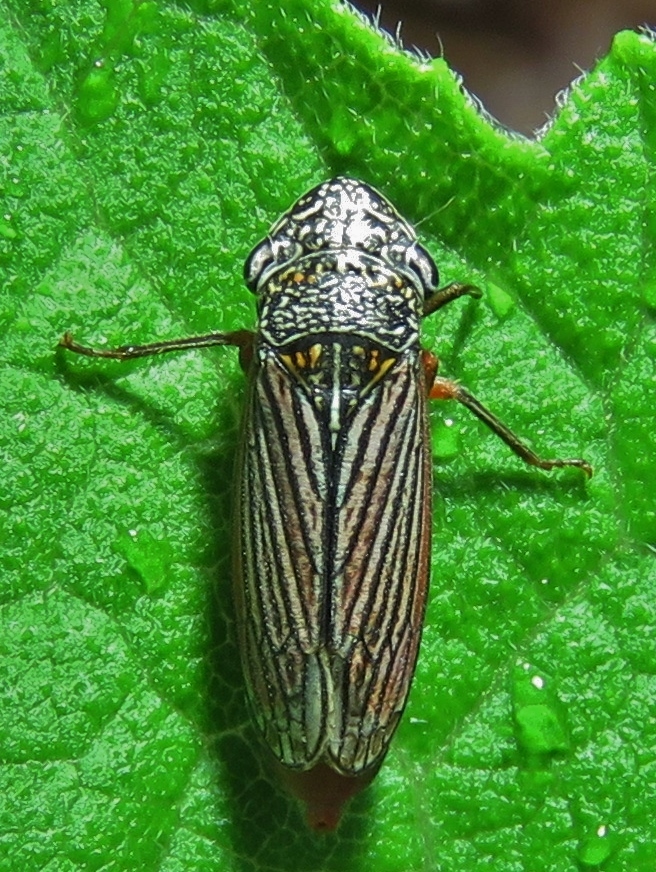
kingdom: Animalia
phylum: Arthropoda
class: Insecta
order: Hemiptera
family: Cicadellidae
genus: Cuerna
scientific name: Cuerna costalis
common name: Lateral-lined sharpshooter
